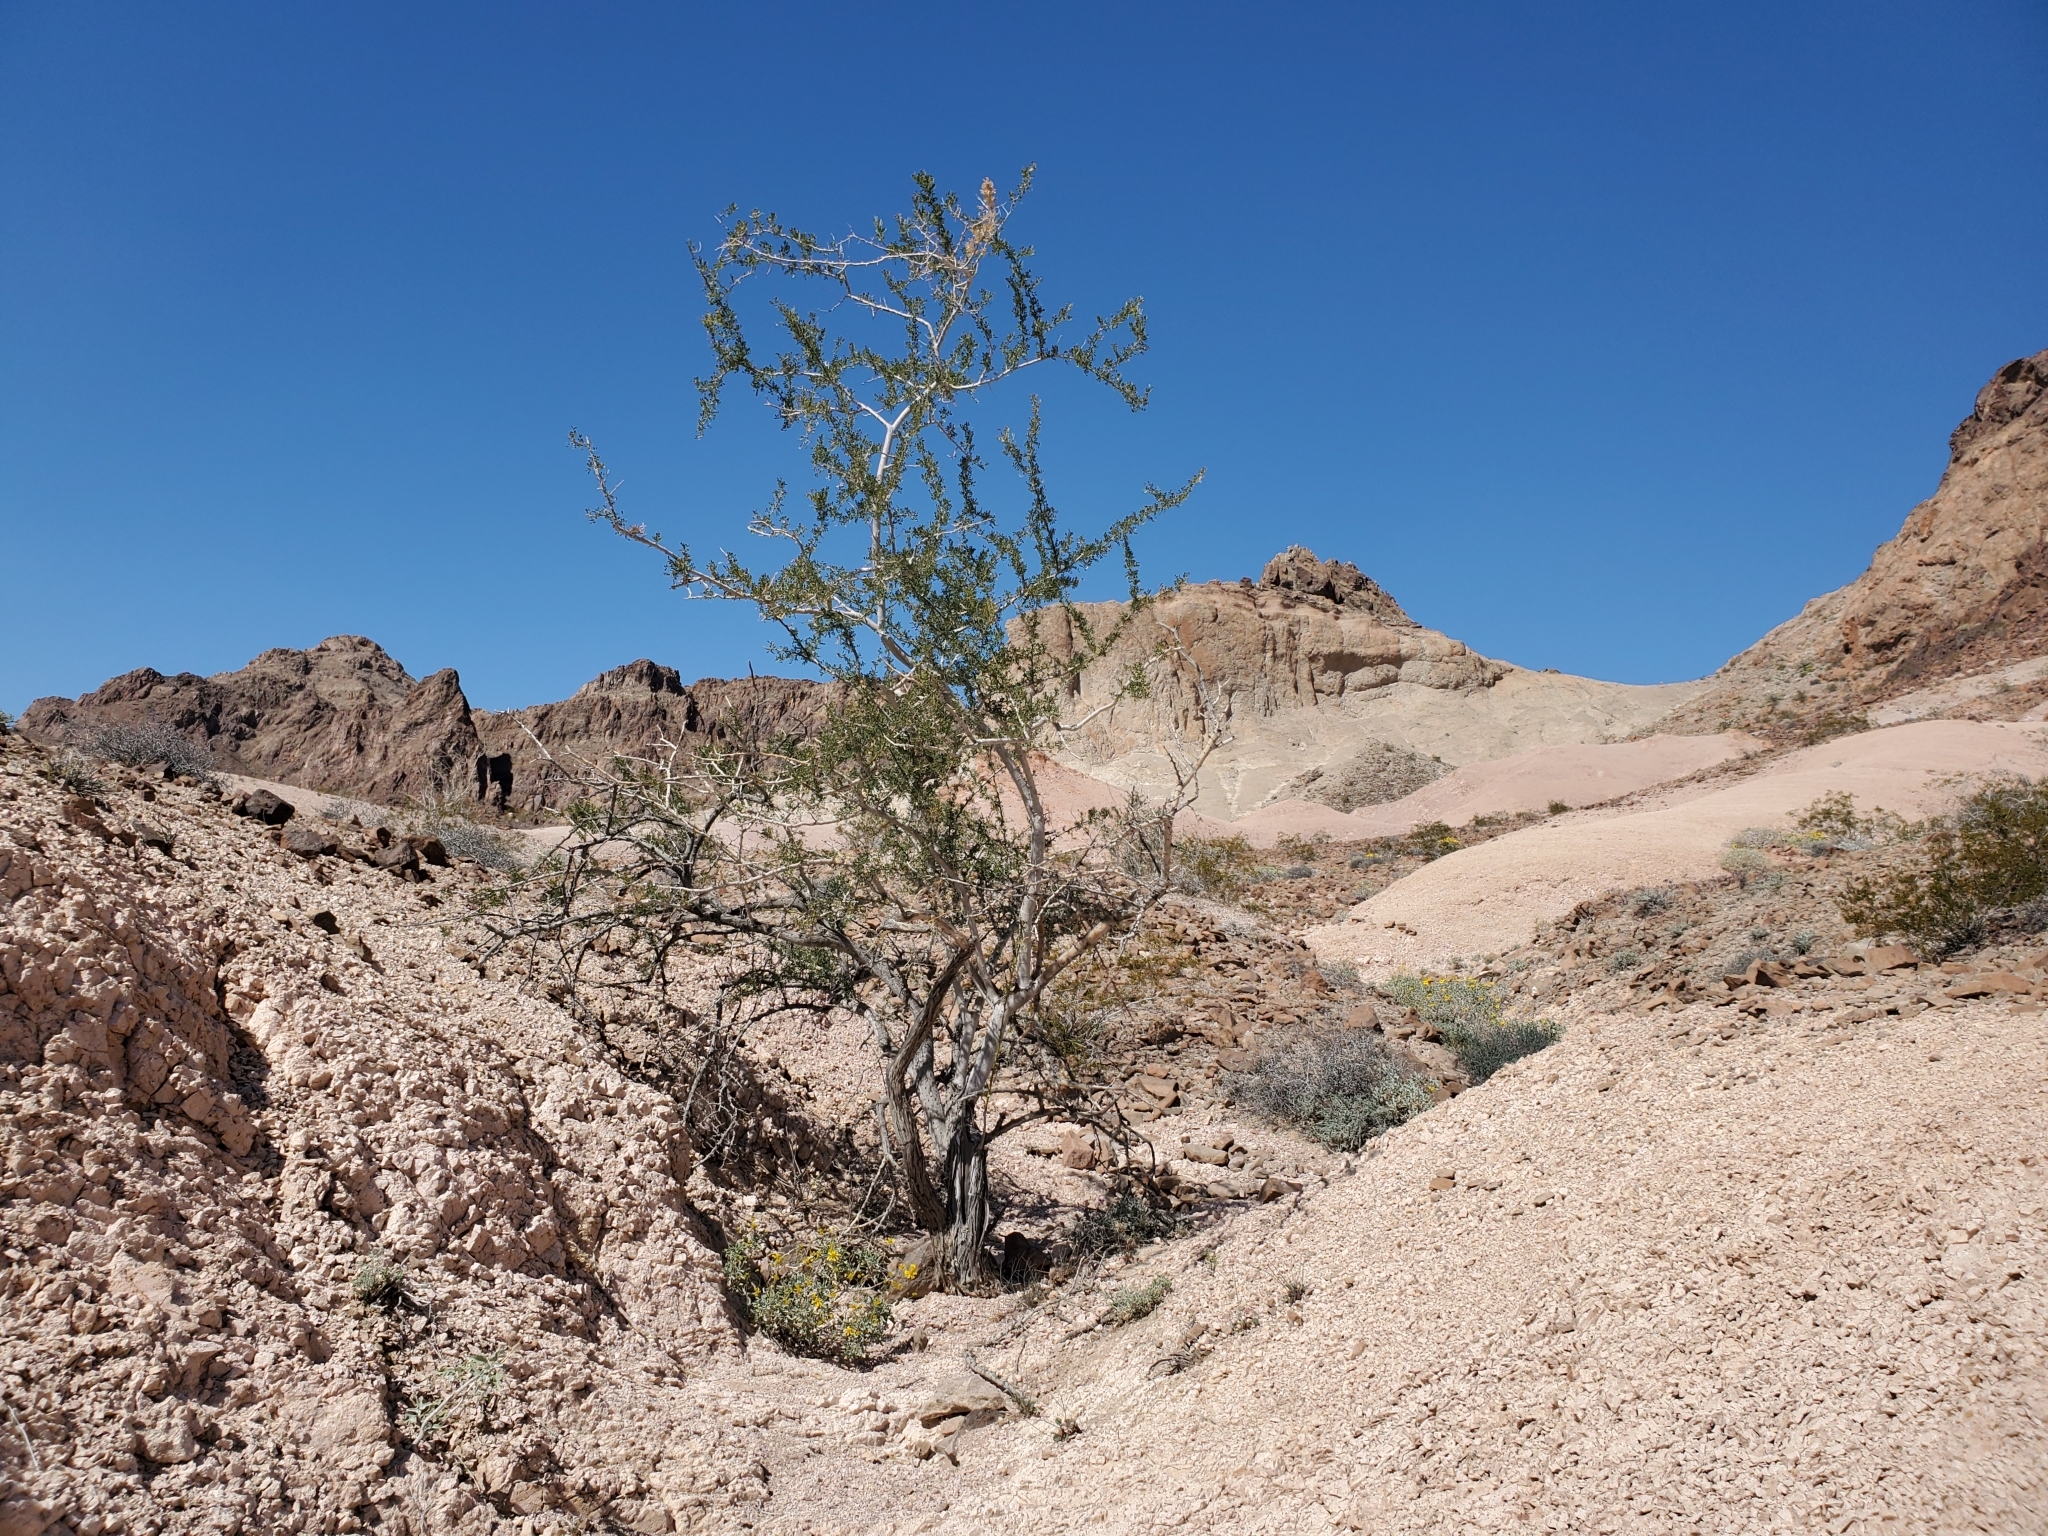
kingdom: Plantae
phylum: Tracheophyta
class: Magnoliopsida
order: Fabales
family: Fabaceae
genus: Olneya
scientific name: Olneya tesota
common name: Desert ironwood
